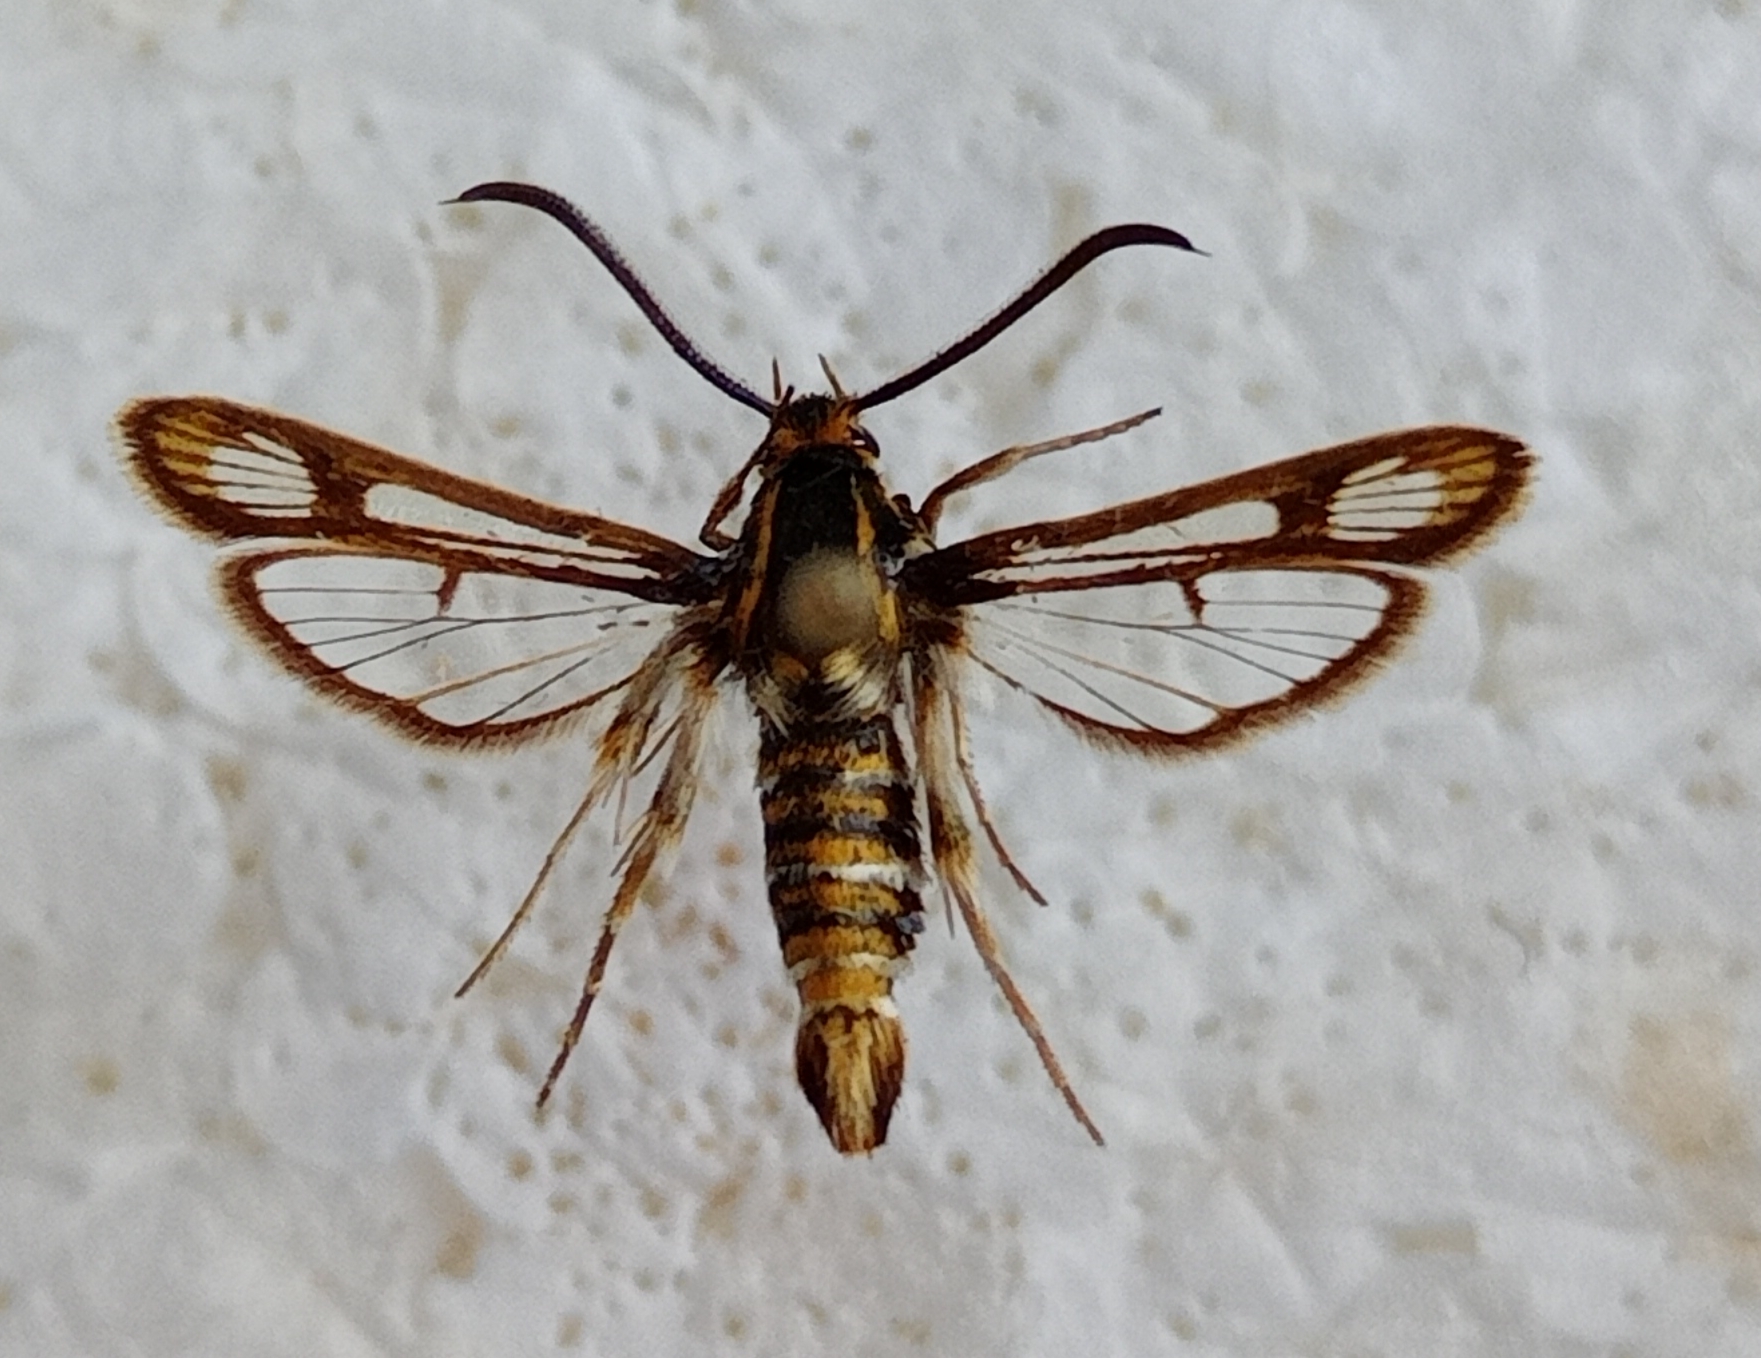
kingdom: Animalia
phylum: Arthropoda
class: Insecta
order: Lepidoptera
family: Sesiidae
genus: Chamaesphecia
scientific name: Chamaesphecia dumonti
